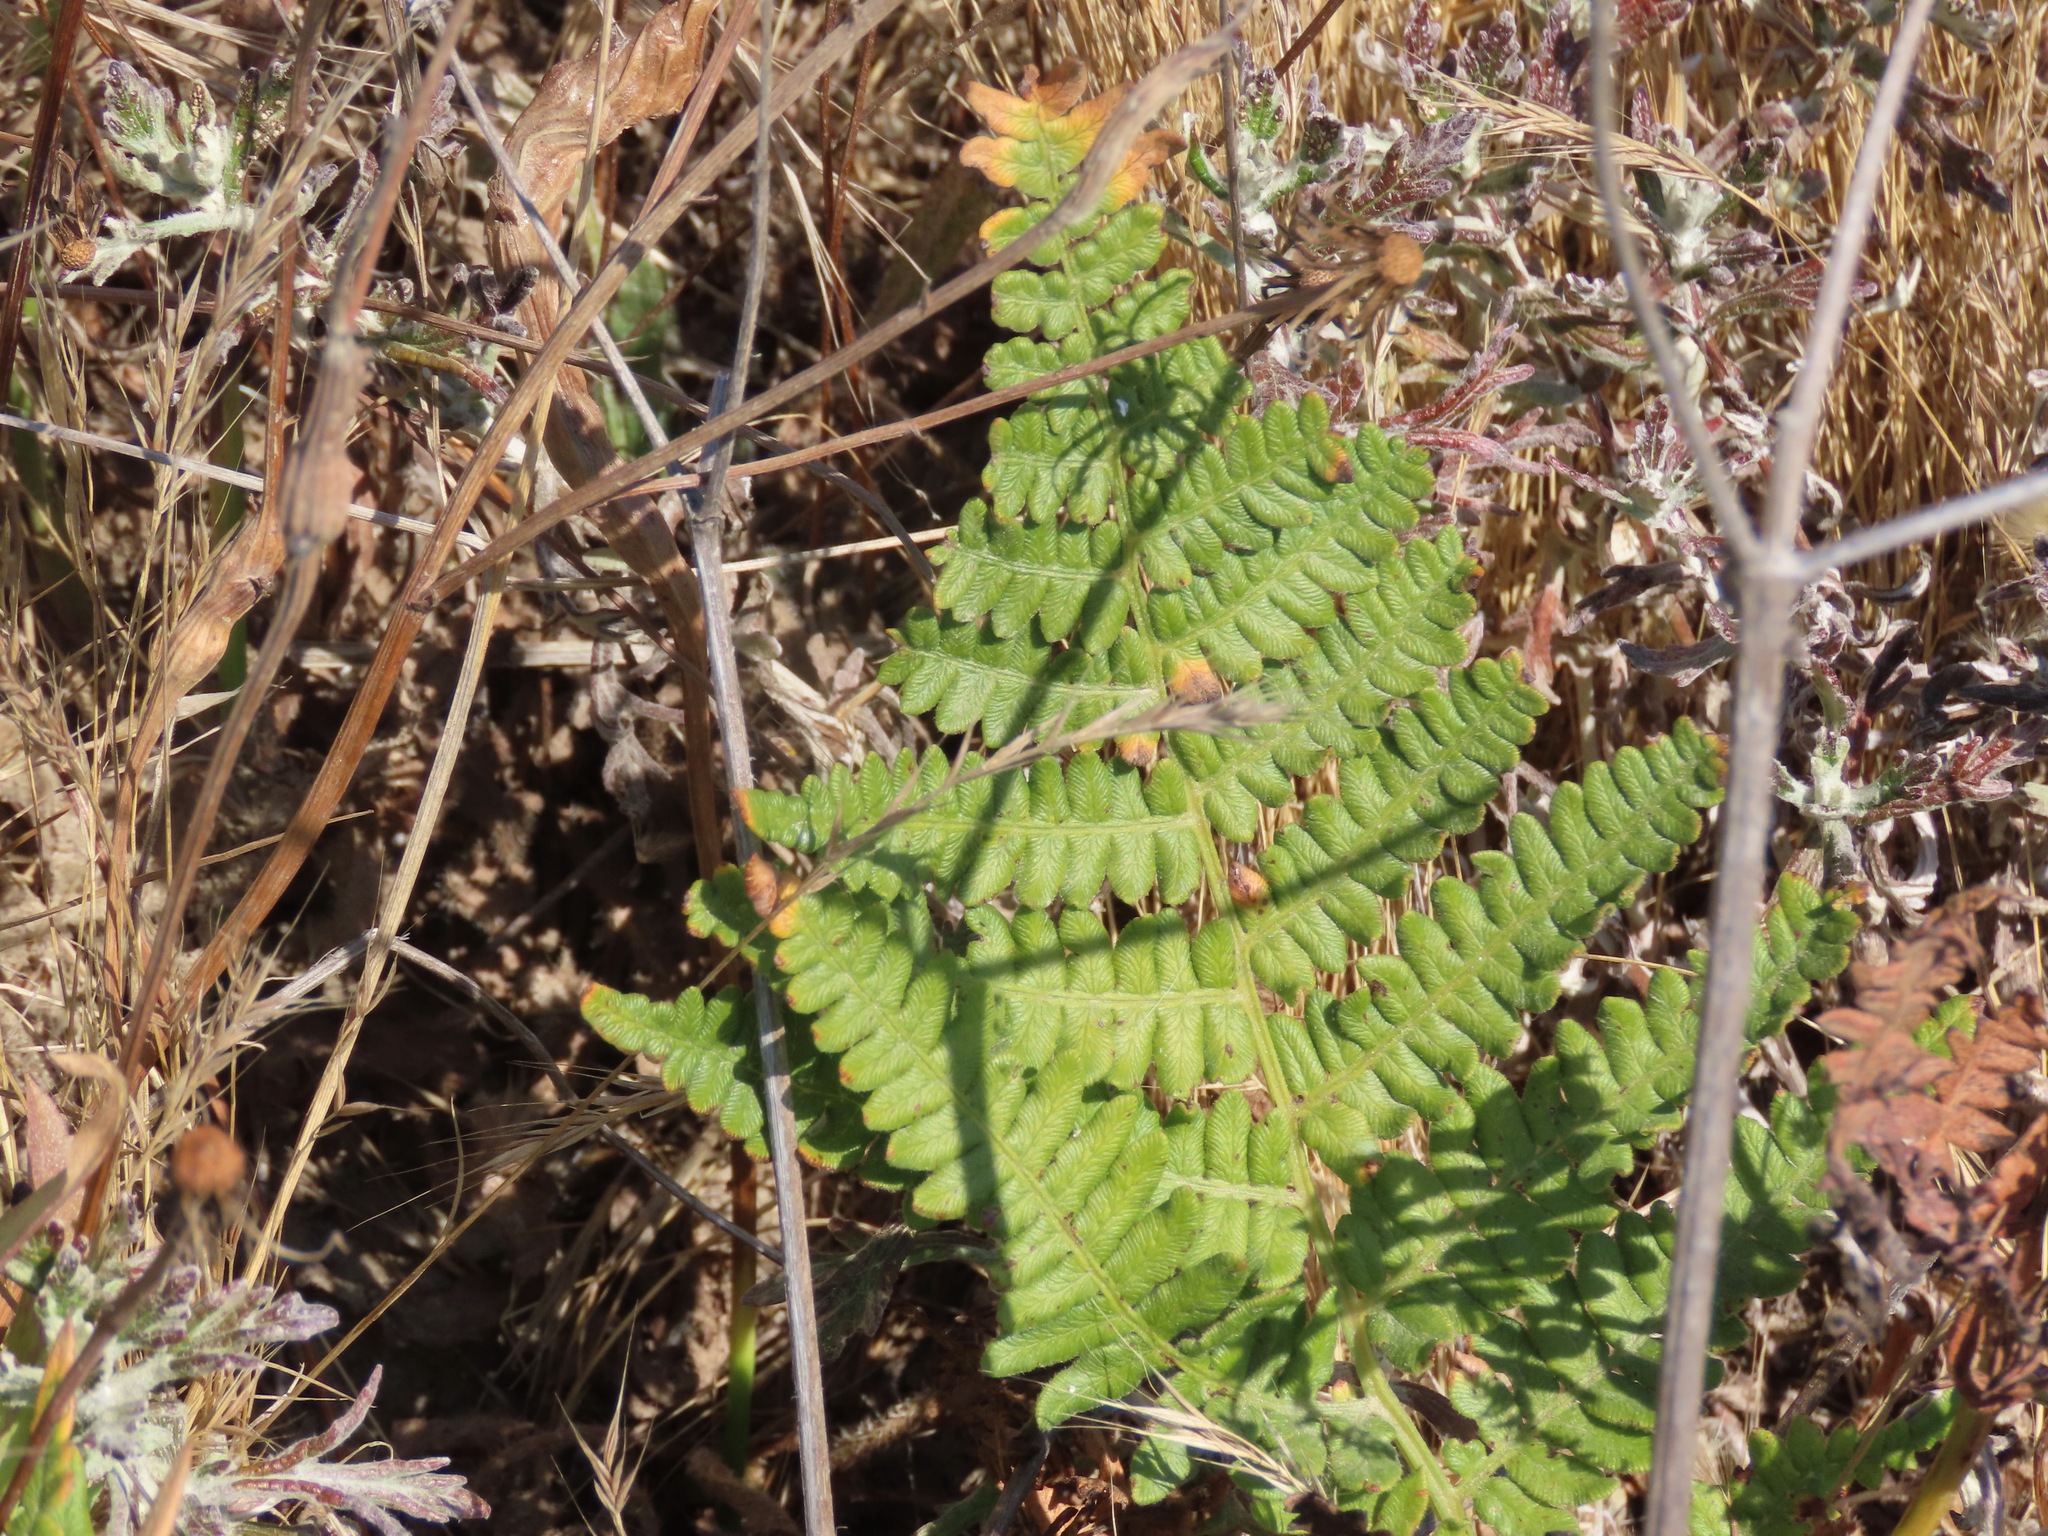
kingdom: Plantae
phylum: Tracheophyta
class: Polypodiopsida
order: Polypodiales
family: Dennstaedtiaceae
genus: Pteridium
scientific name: Pteridium aquilinum
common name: Bracken
